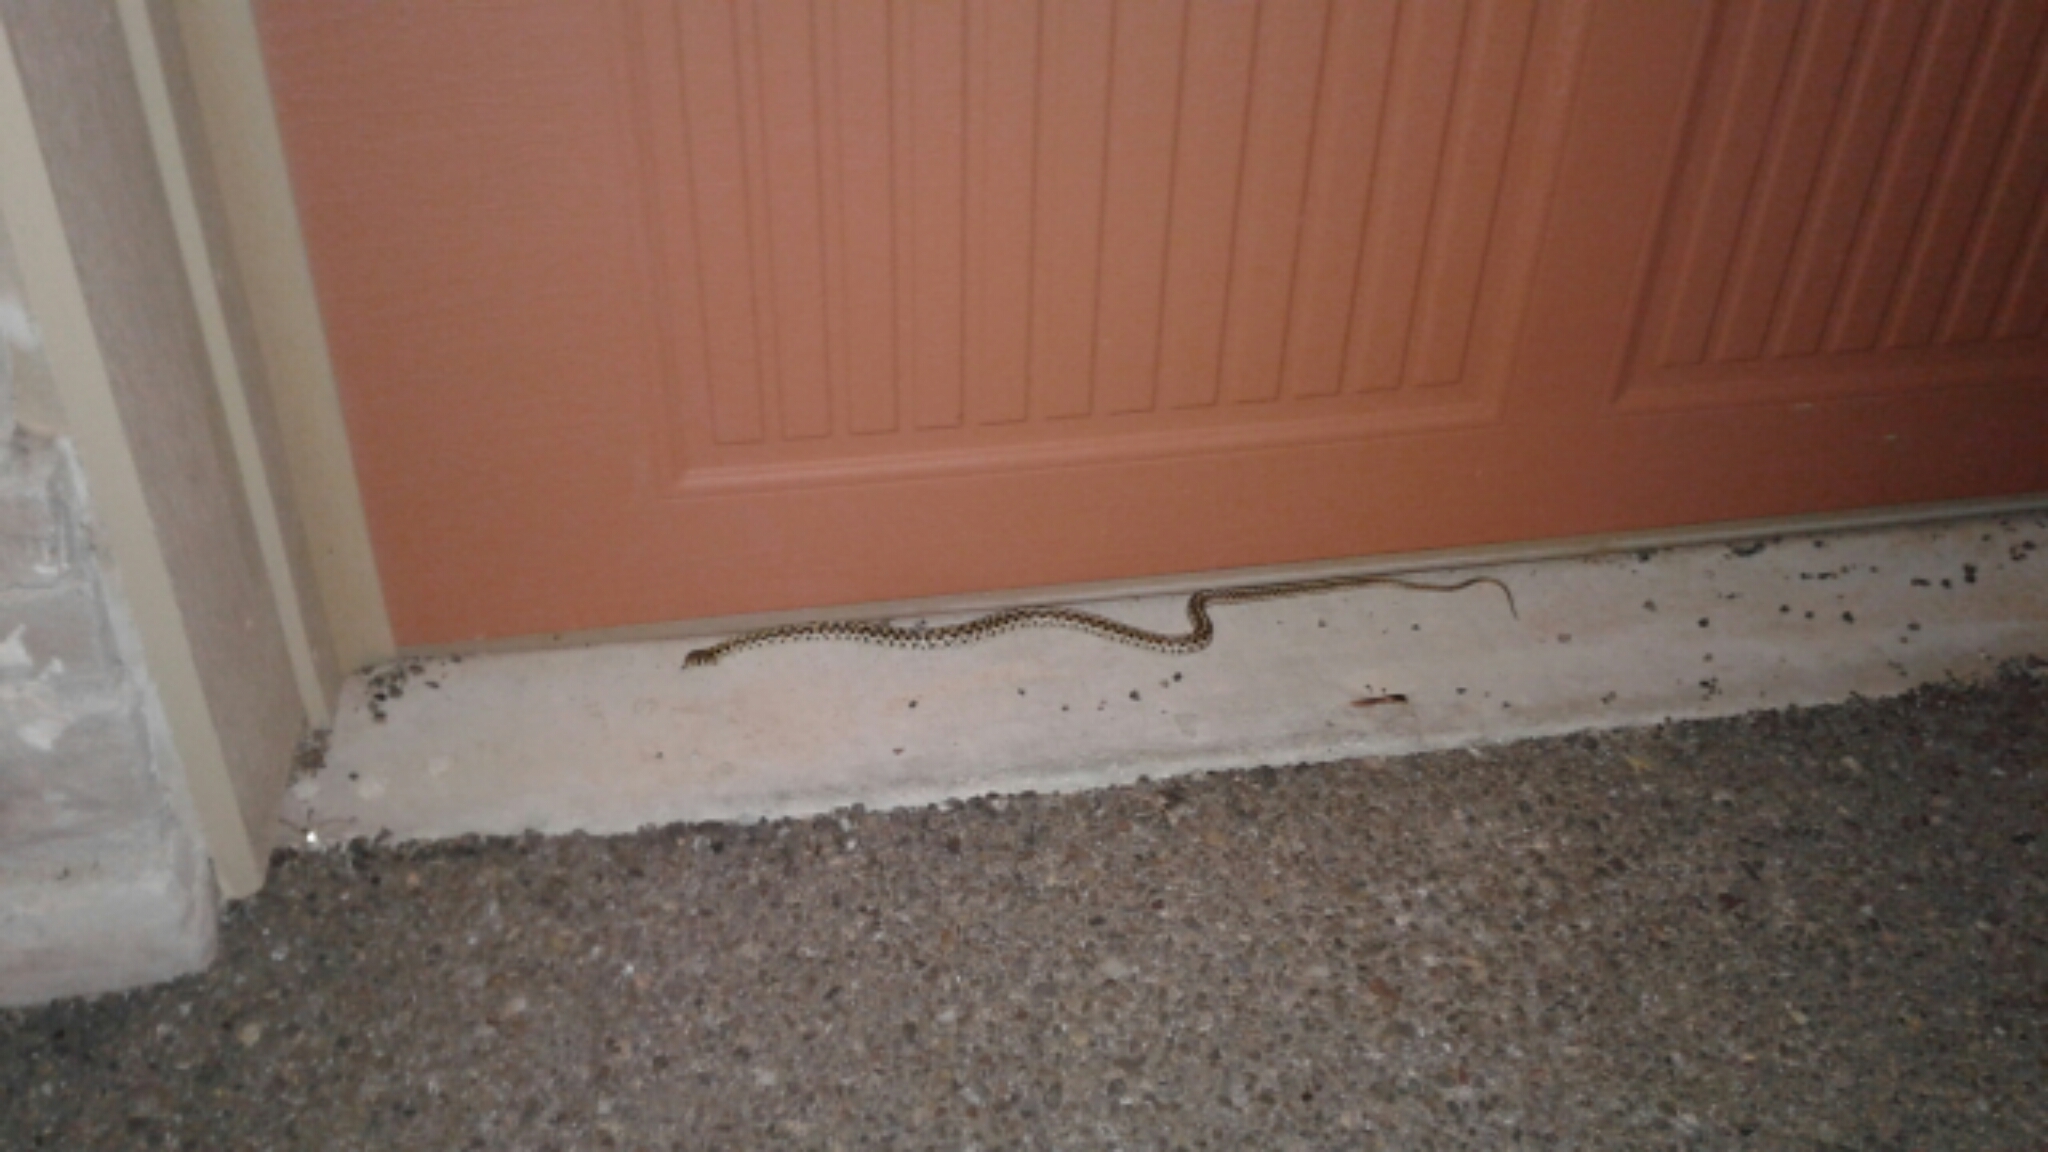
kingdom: Animalia
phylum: Chordata
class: Squamata
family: Colubridae
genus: Thamnophis
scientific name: Thamnophis marcianus
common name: Checkered garter snake
